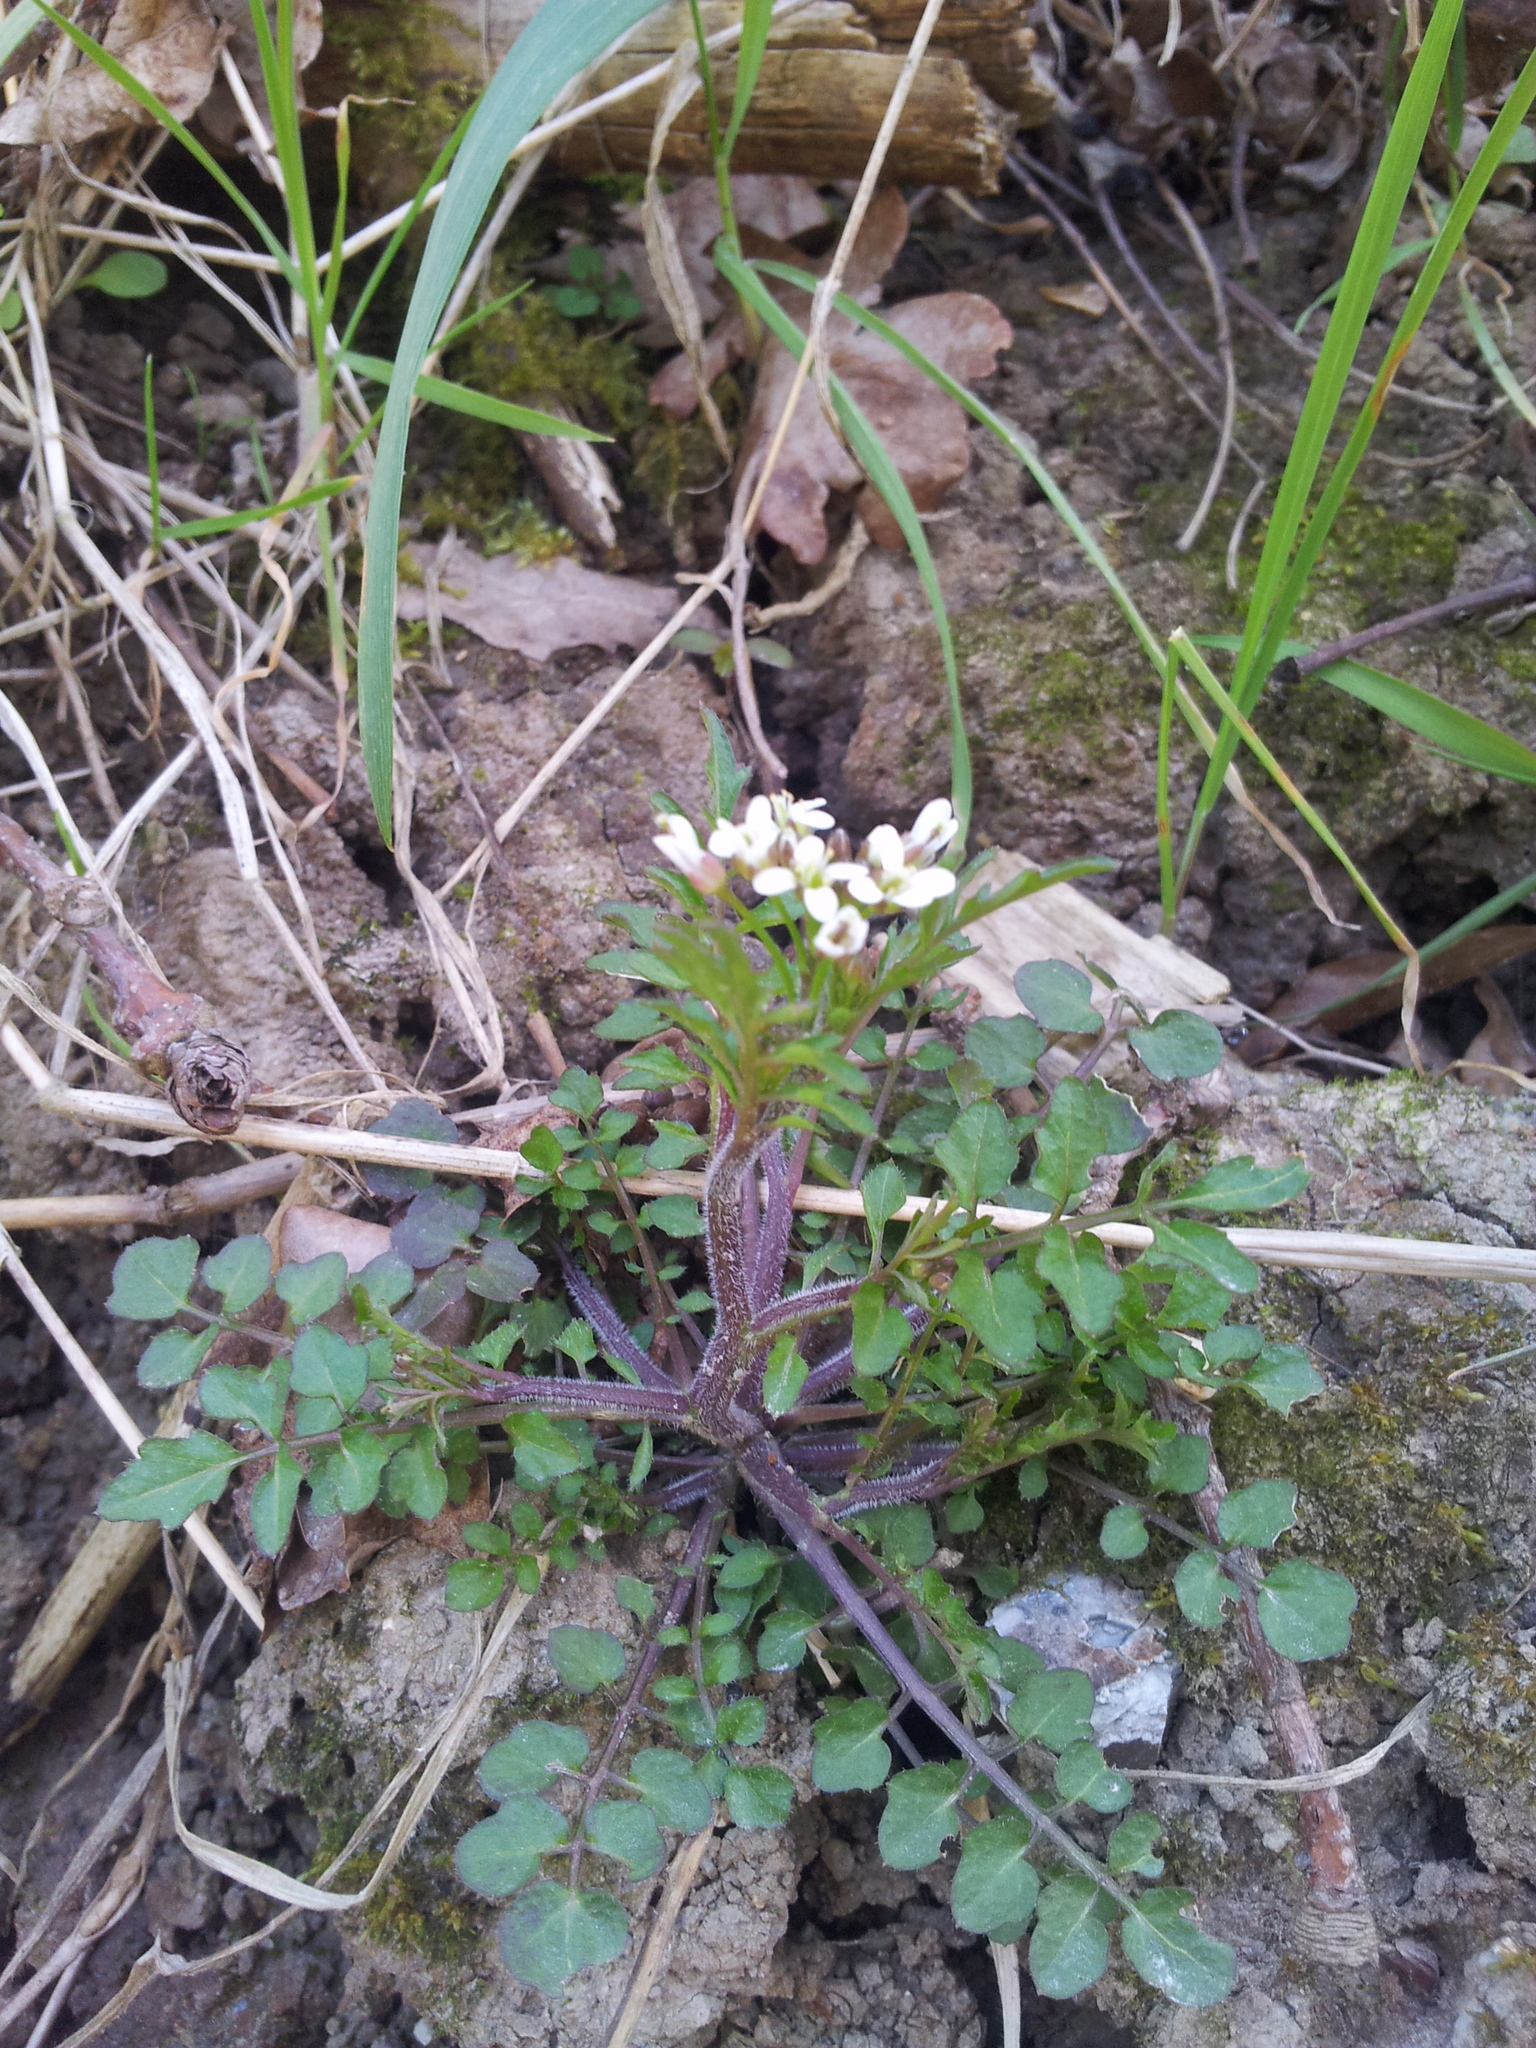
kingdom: Plantae
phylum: Tracheophyta
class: Magnoliopsida
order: Brassicales
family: Brassicaceae
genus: Cardamine
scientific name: Cardamine flexuosa
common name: Woodland bittercress
